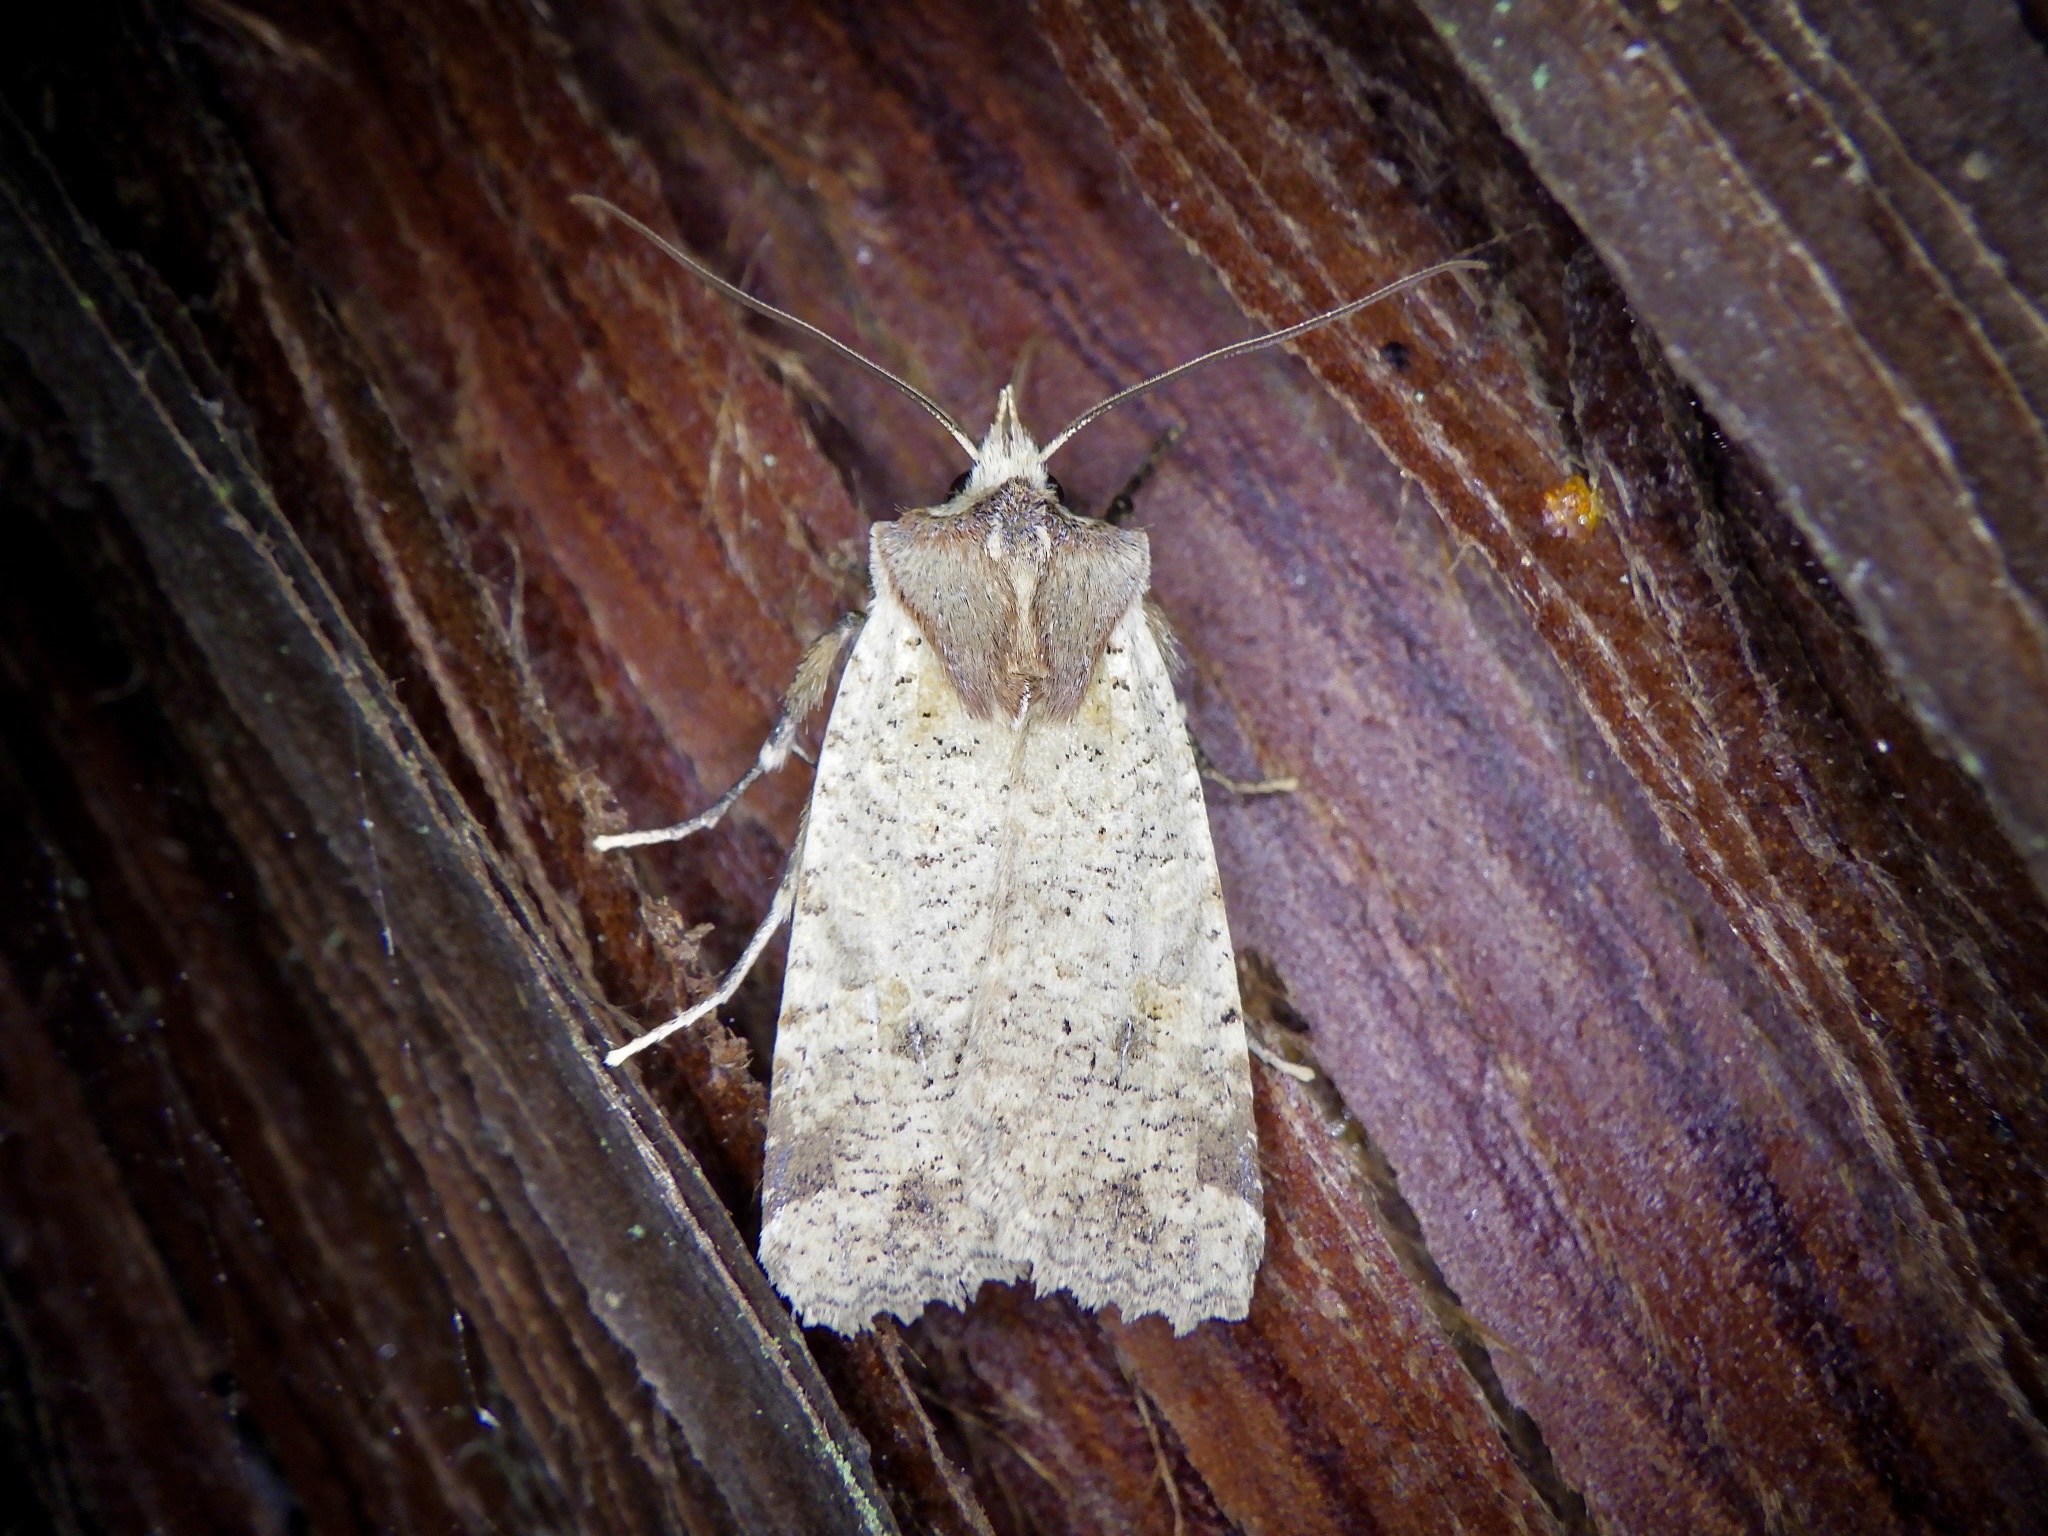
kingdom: Animalia
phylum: Arthropoda
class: Insecta
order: Lepidoptera
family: Noctuidae
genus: Rhynchaglaea
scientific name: Rhynchaglaea scitula
